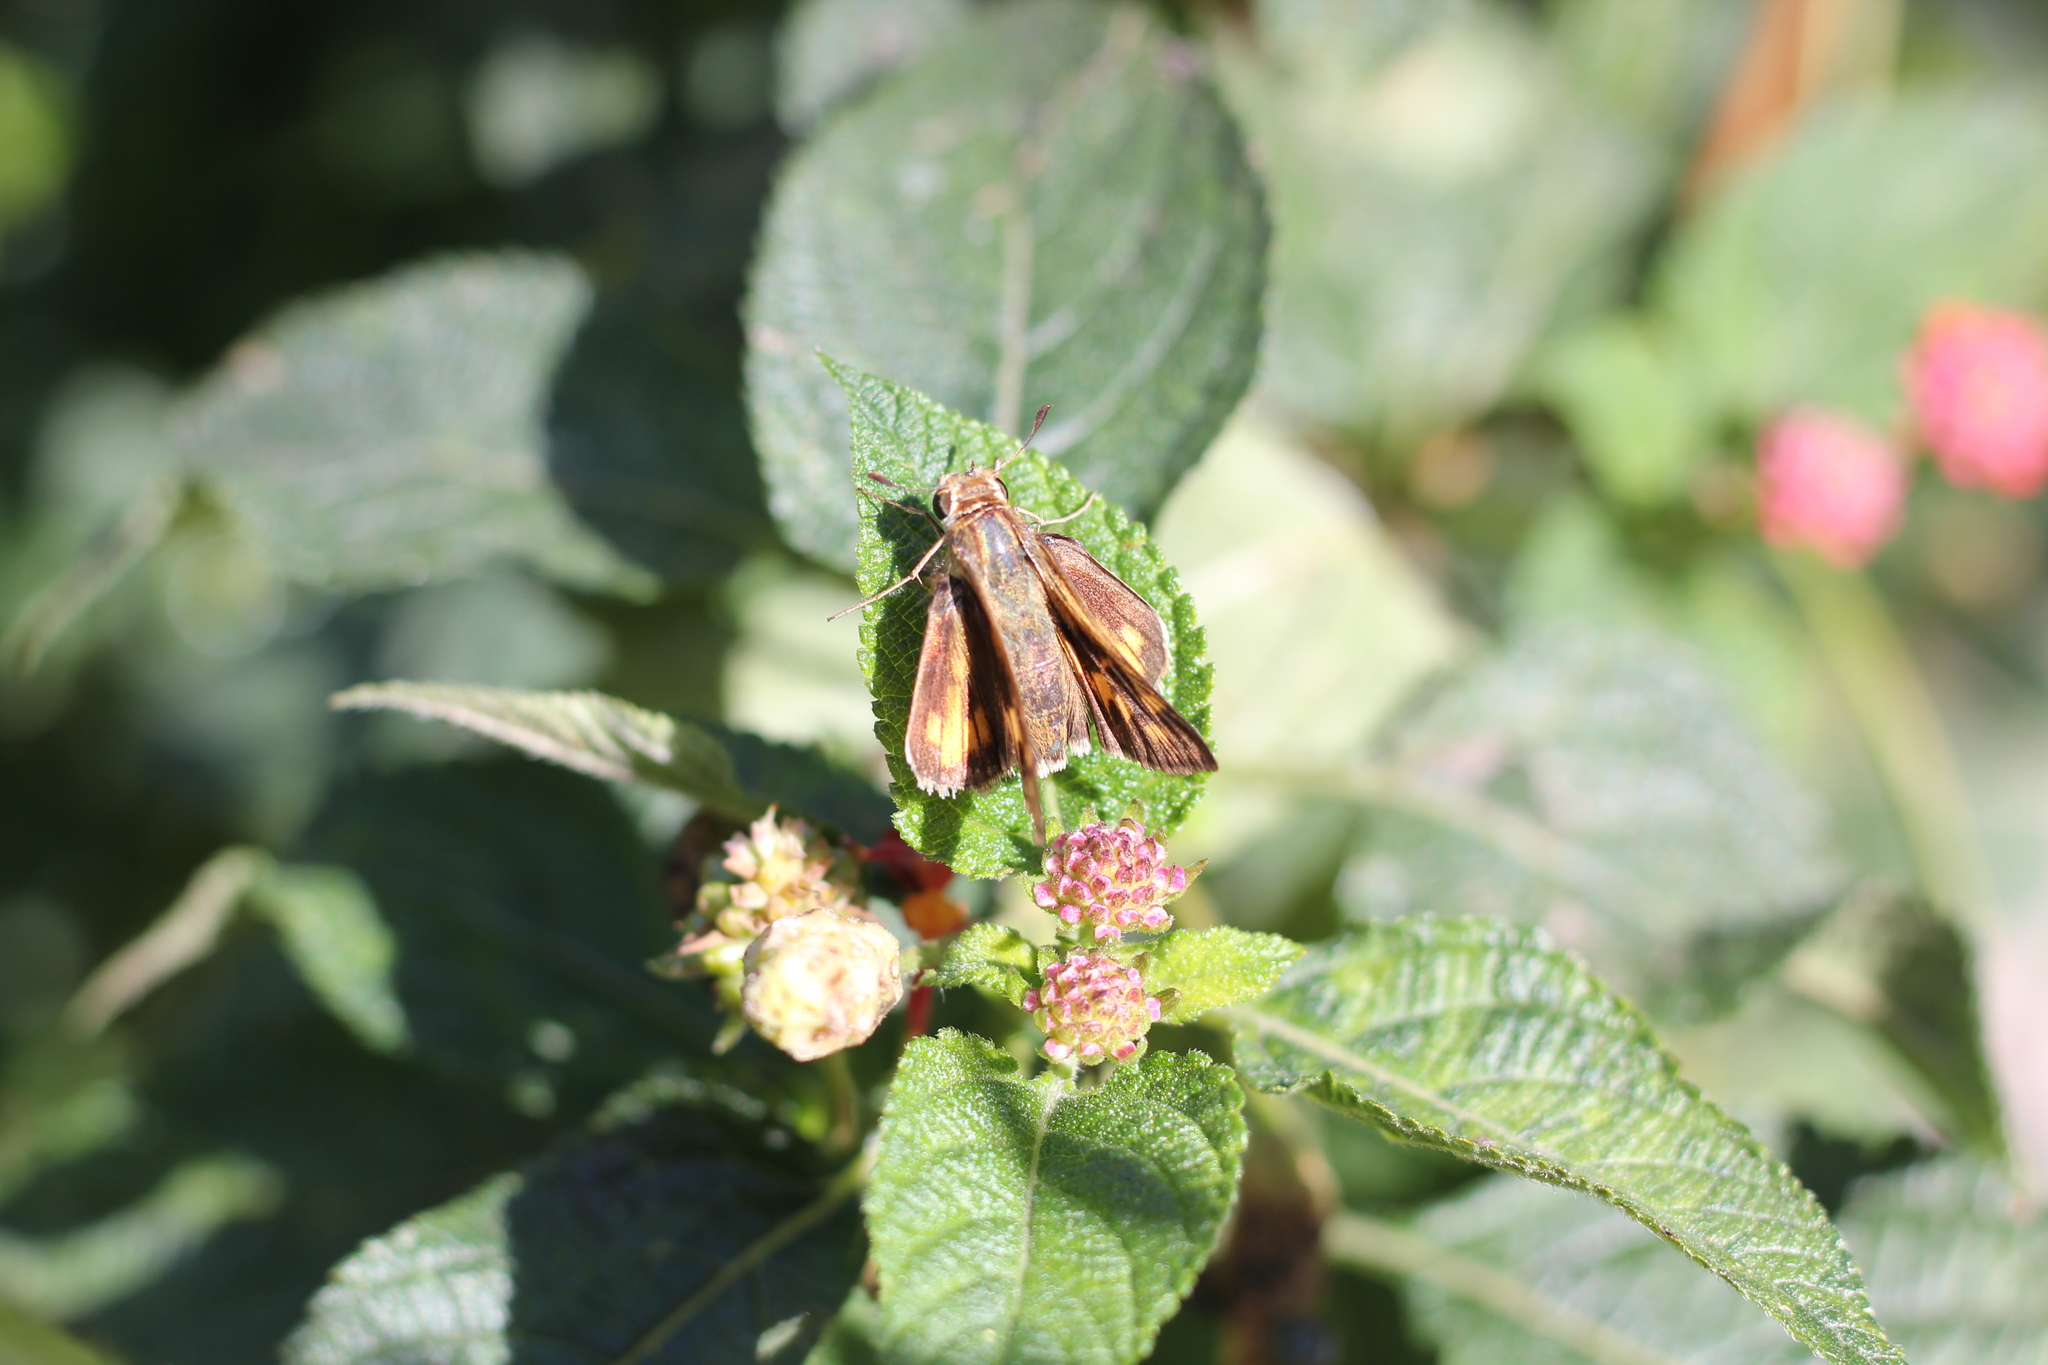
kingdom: Animalia
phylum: Arthropoda
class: Insecta
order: Lepidoptera
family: Hesperiidae
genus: Hylephila
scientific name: Hylephila phyleus
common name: Fiery skipper
